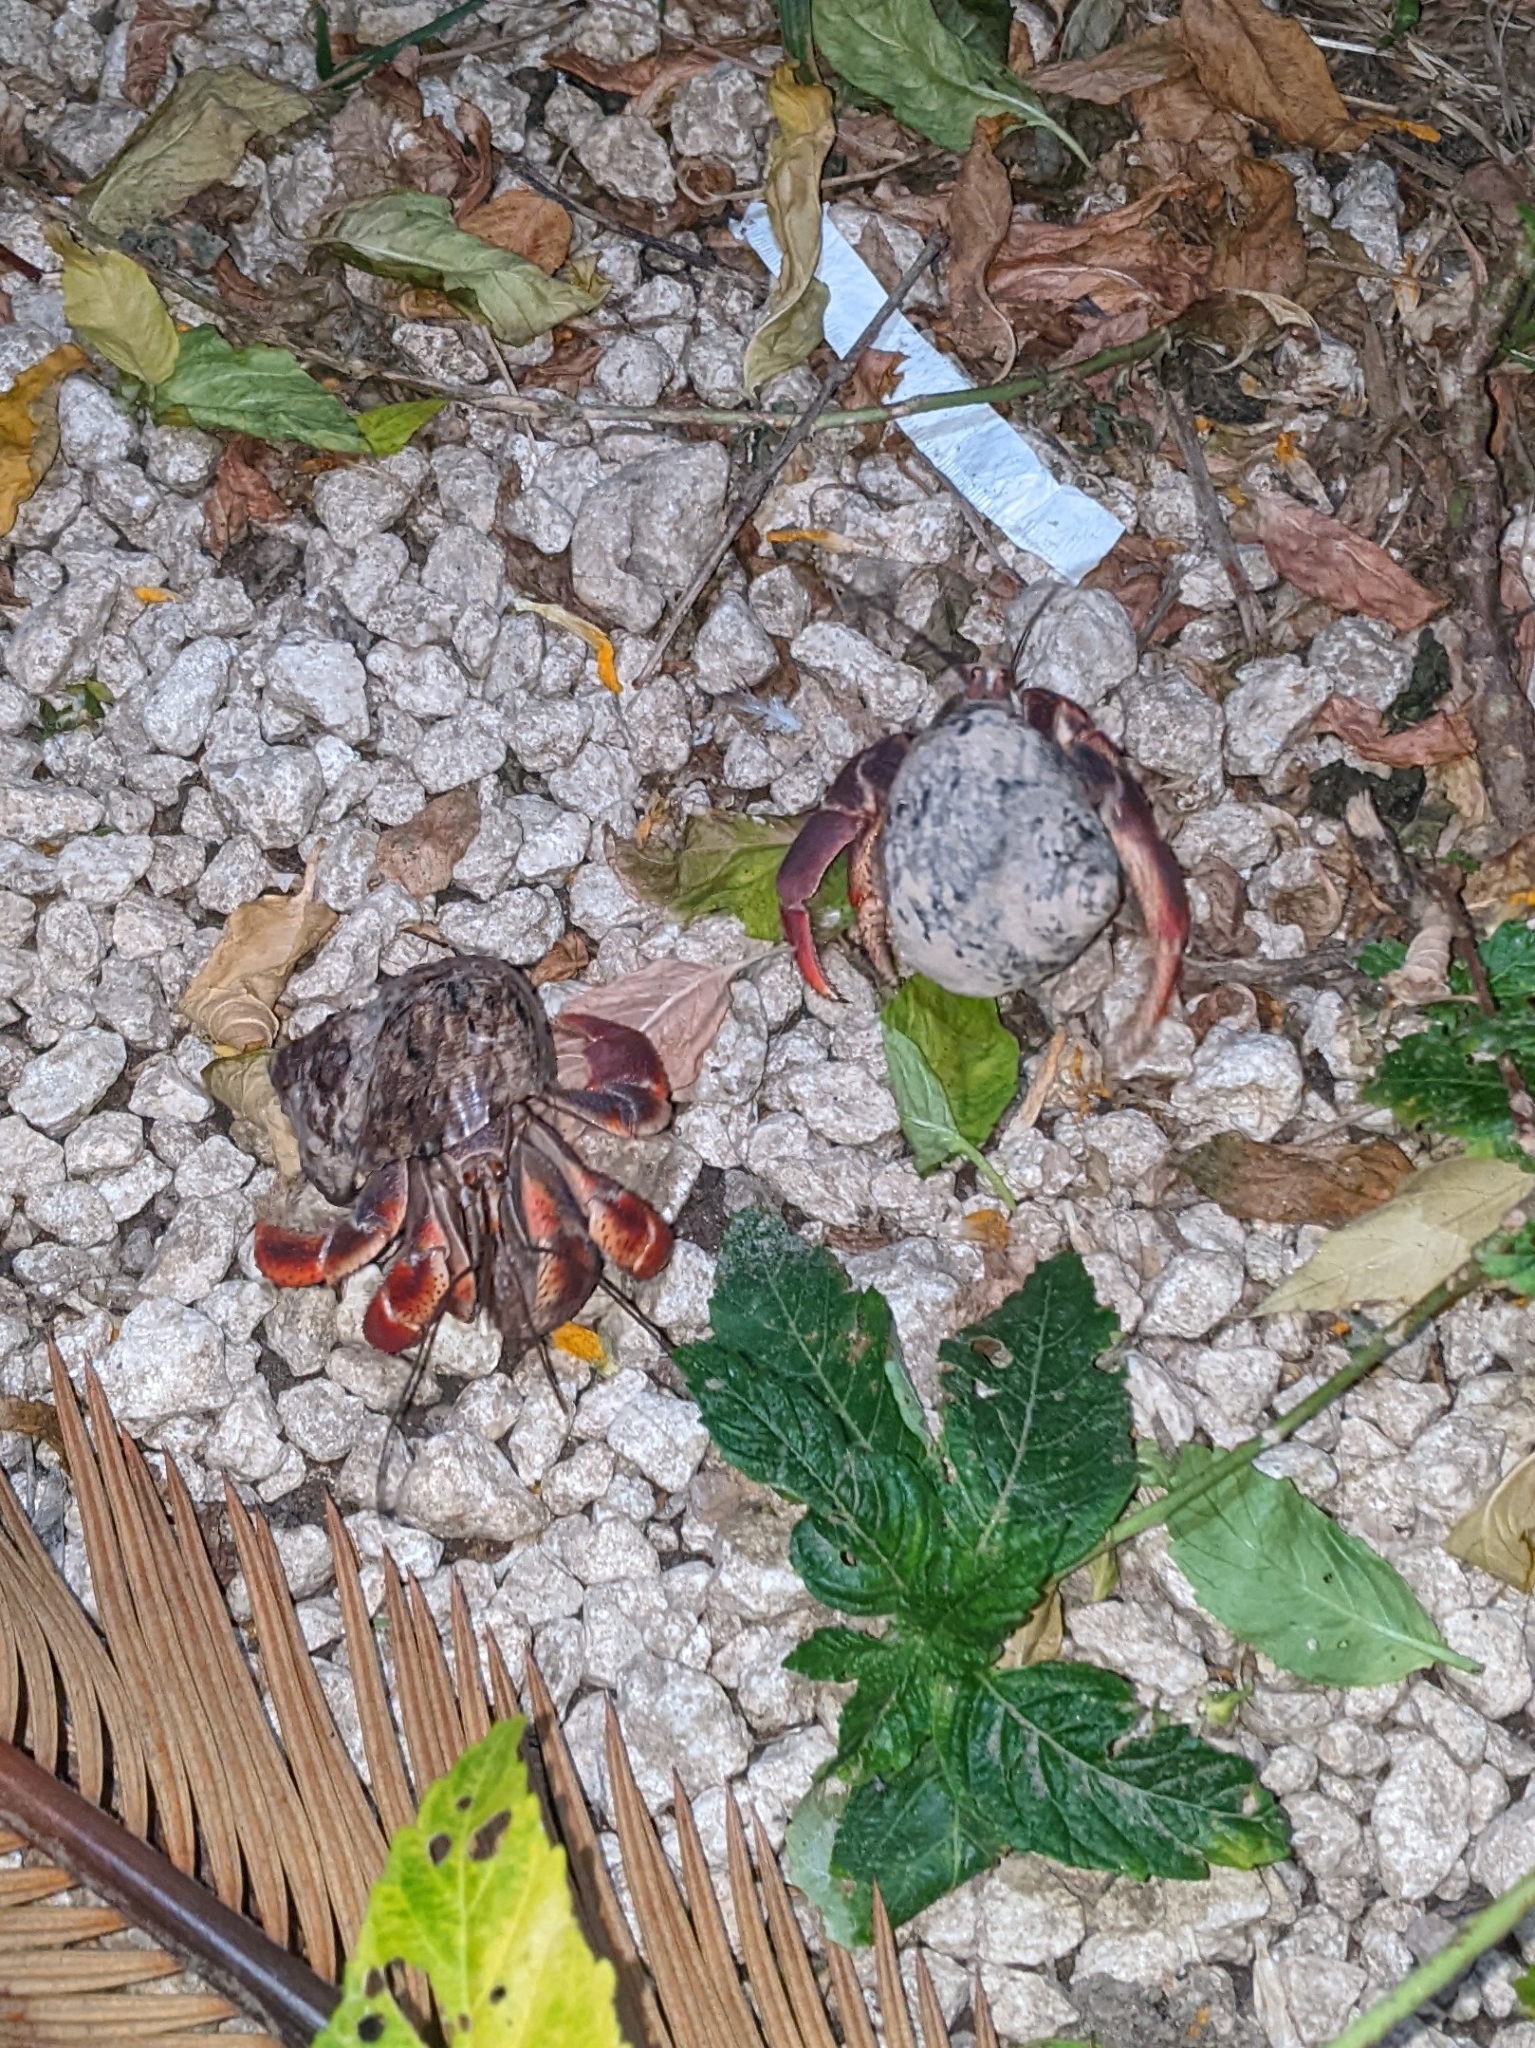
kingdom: Animalia
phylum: Arthropoda
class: Malacostraca
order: Decapoda
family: Coenobitidae
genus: Coenobita
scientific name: Coenobita clypeatus
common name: Caribbean hermit crab
